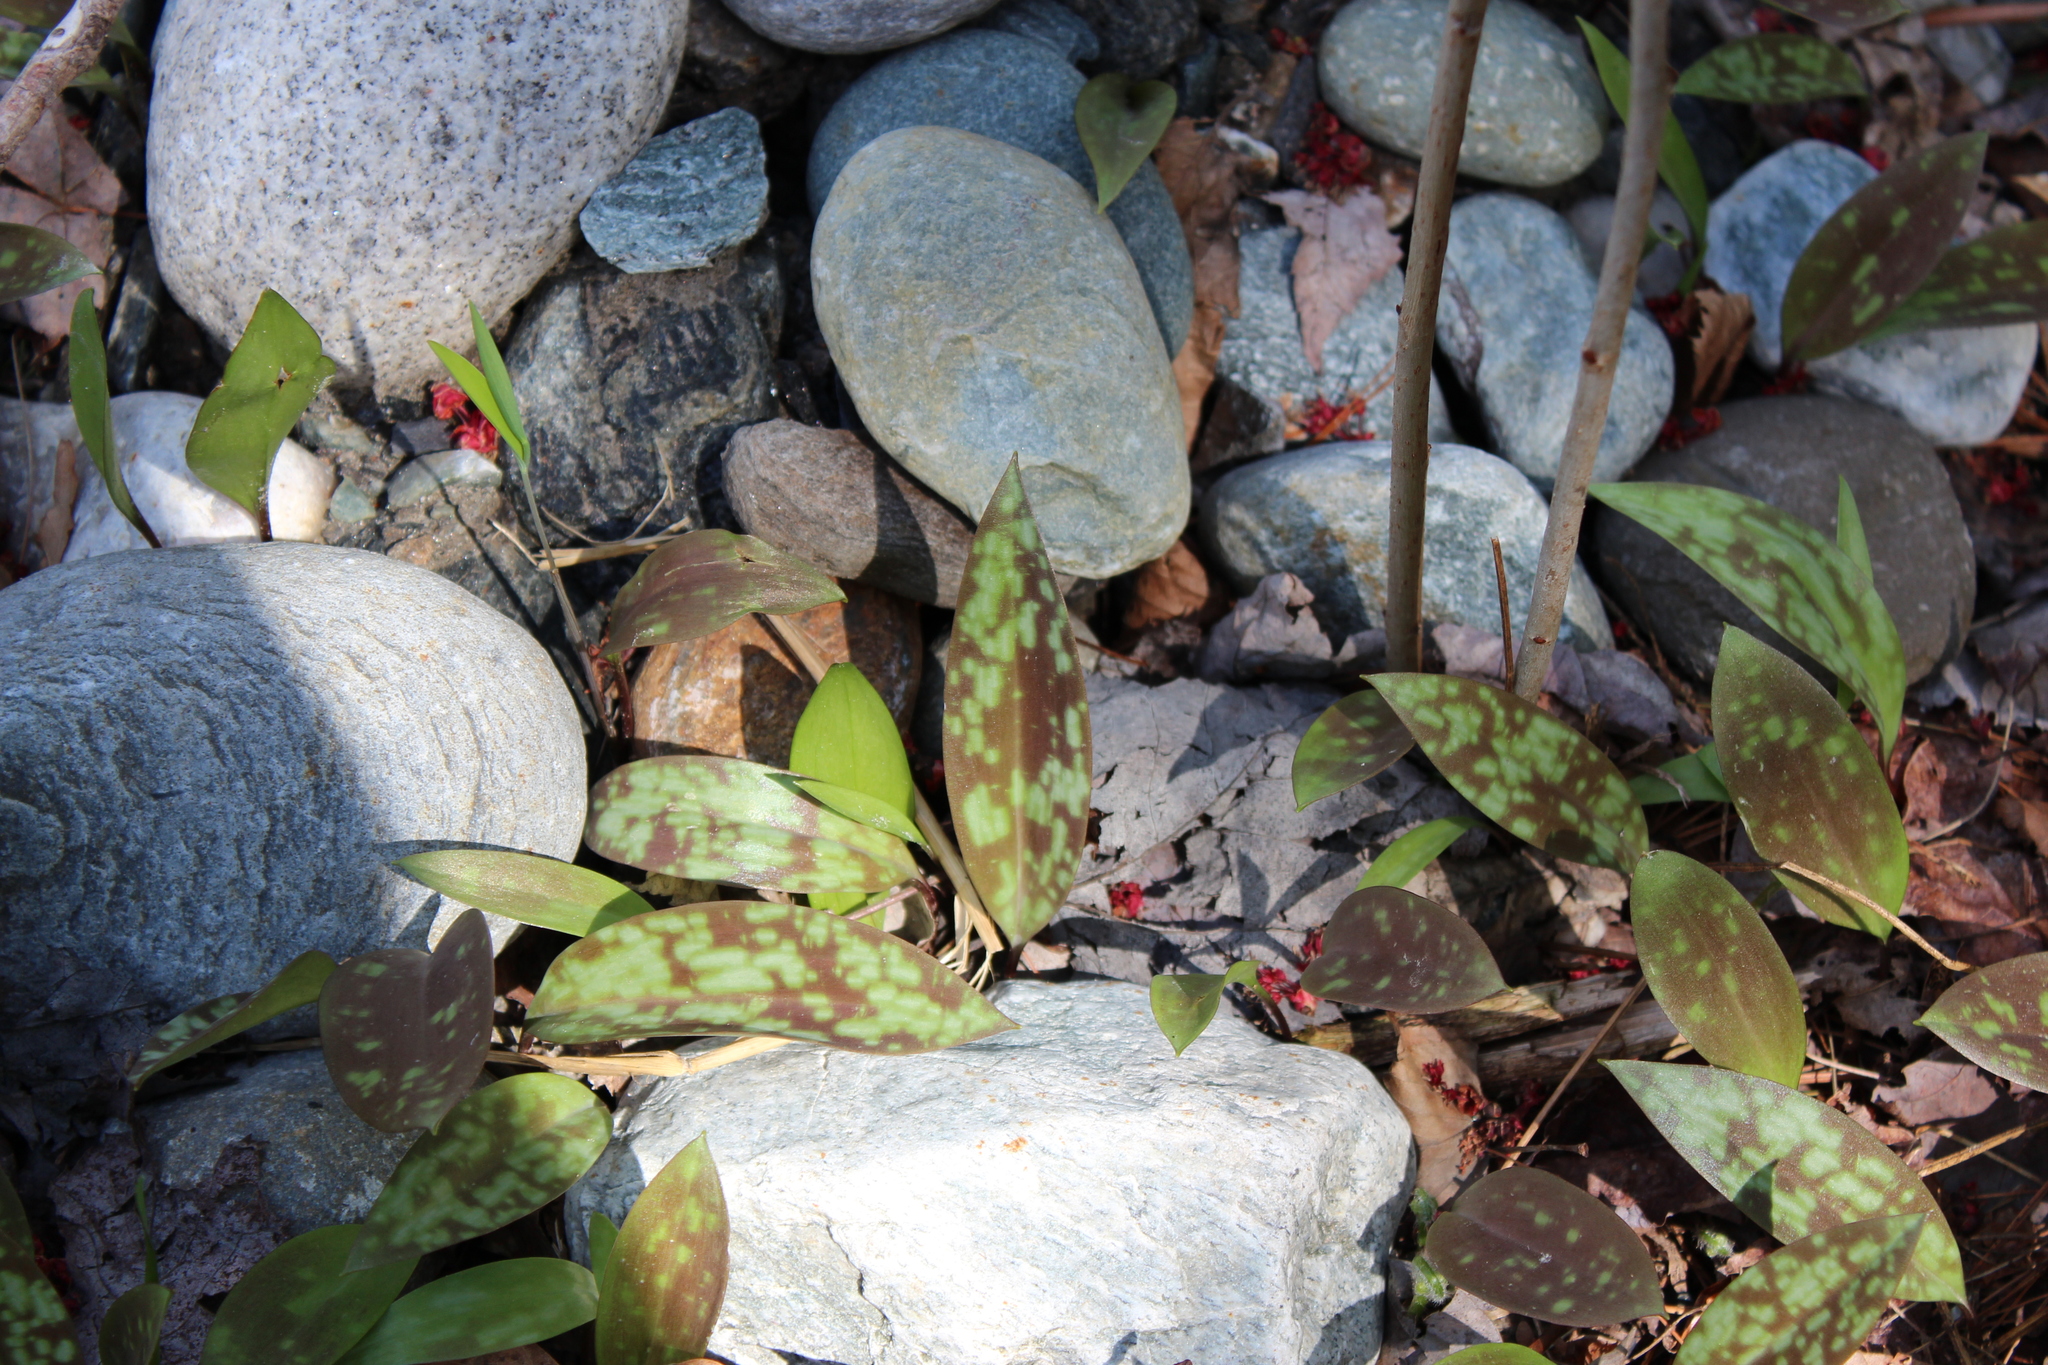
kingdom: Plantae
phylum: Tracheophyta
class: Liliopsida
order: Liliales
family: Liliaceae
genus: Erythronium
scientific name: Erythronium americanum
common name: Yellow adder's-tongue
